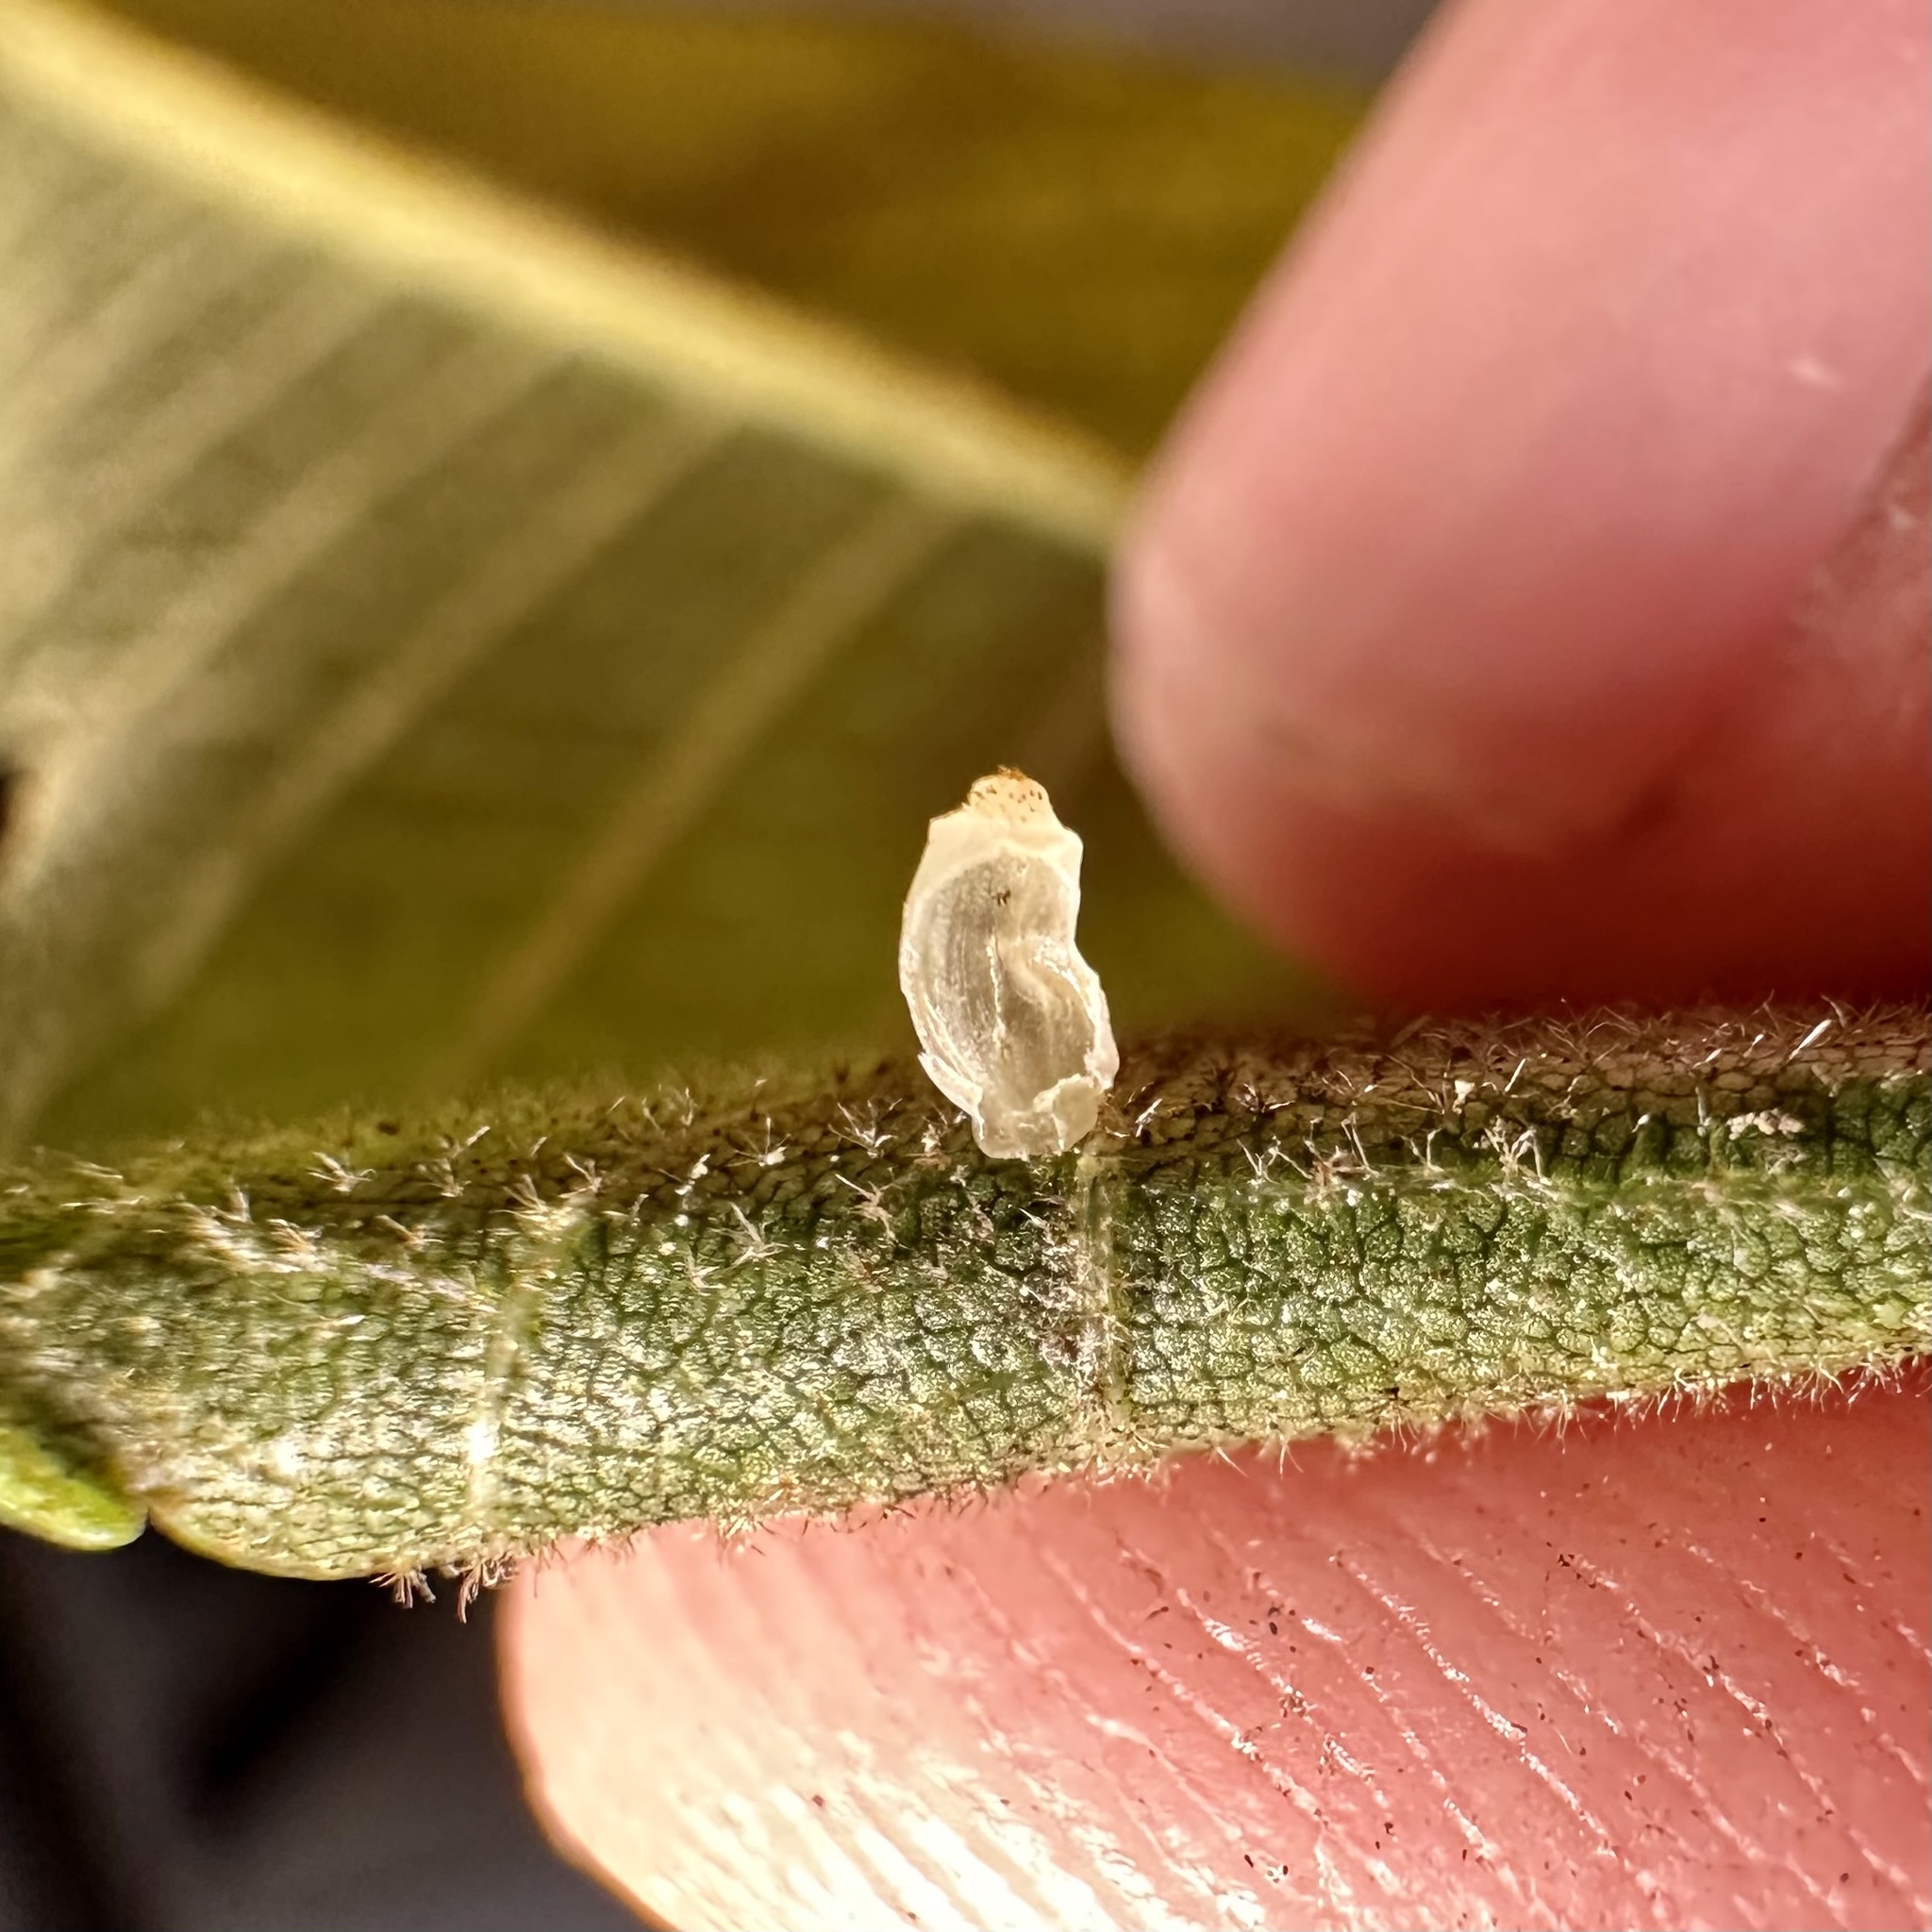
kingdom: Animalia
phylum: Arthropoda
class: Insecta
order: Diptera
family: Cecidomyiidae
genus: Caryomyia
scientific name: Caryomyia urnula
